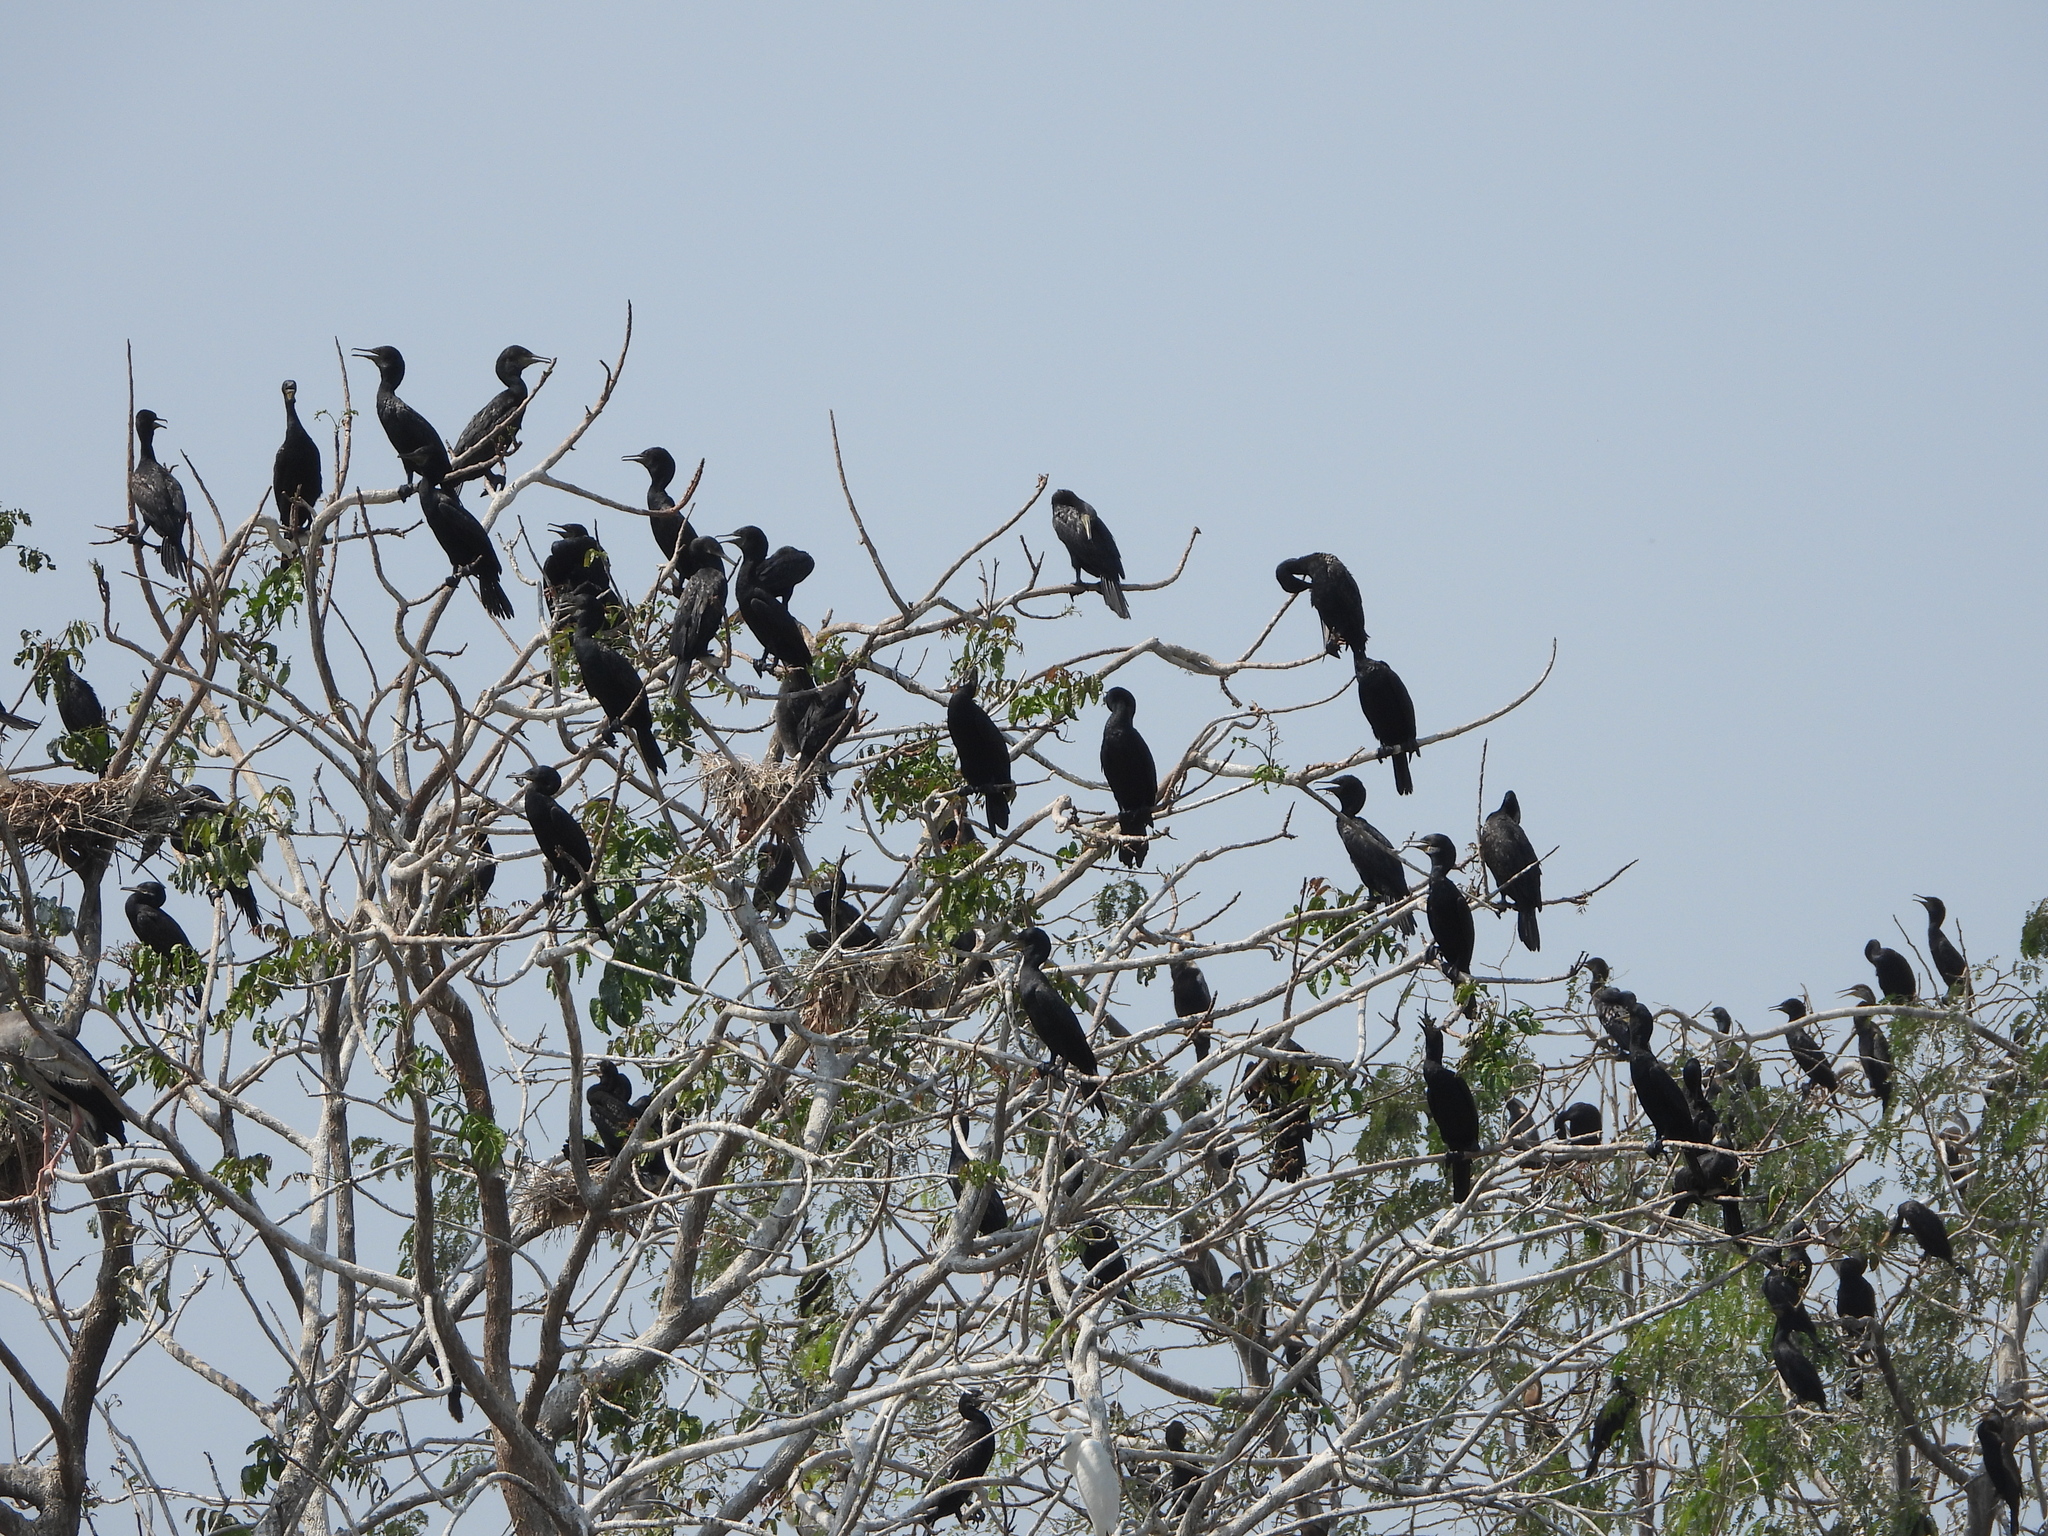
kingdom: Animalia
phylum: Chordata
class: Aves
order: Suliformes
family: Phalacrocoracidae
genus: Phalacrocorax
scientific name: Phalacrocorax fuscicollis
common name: Indian cormorant
